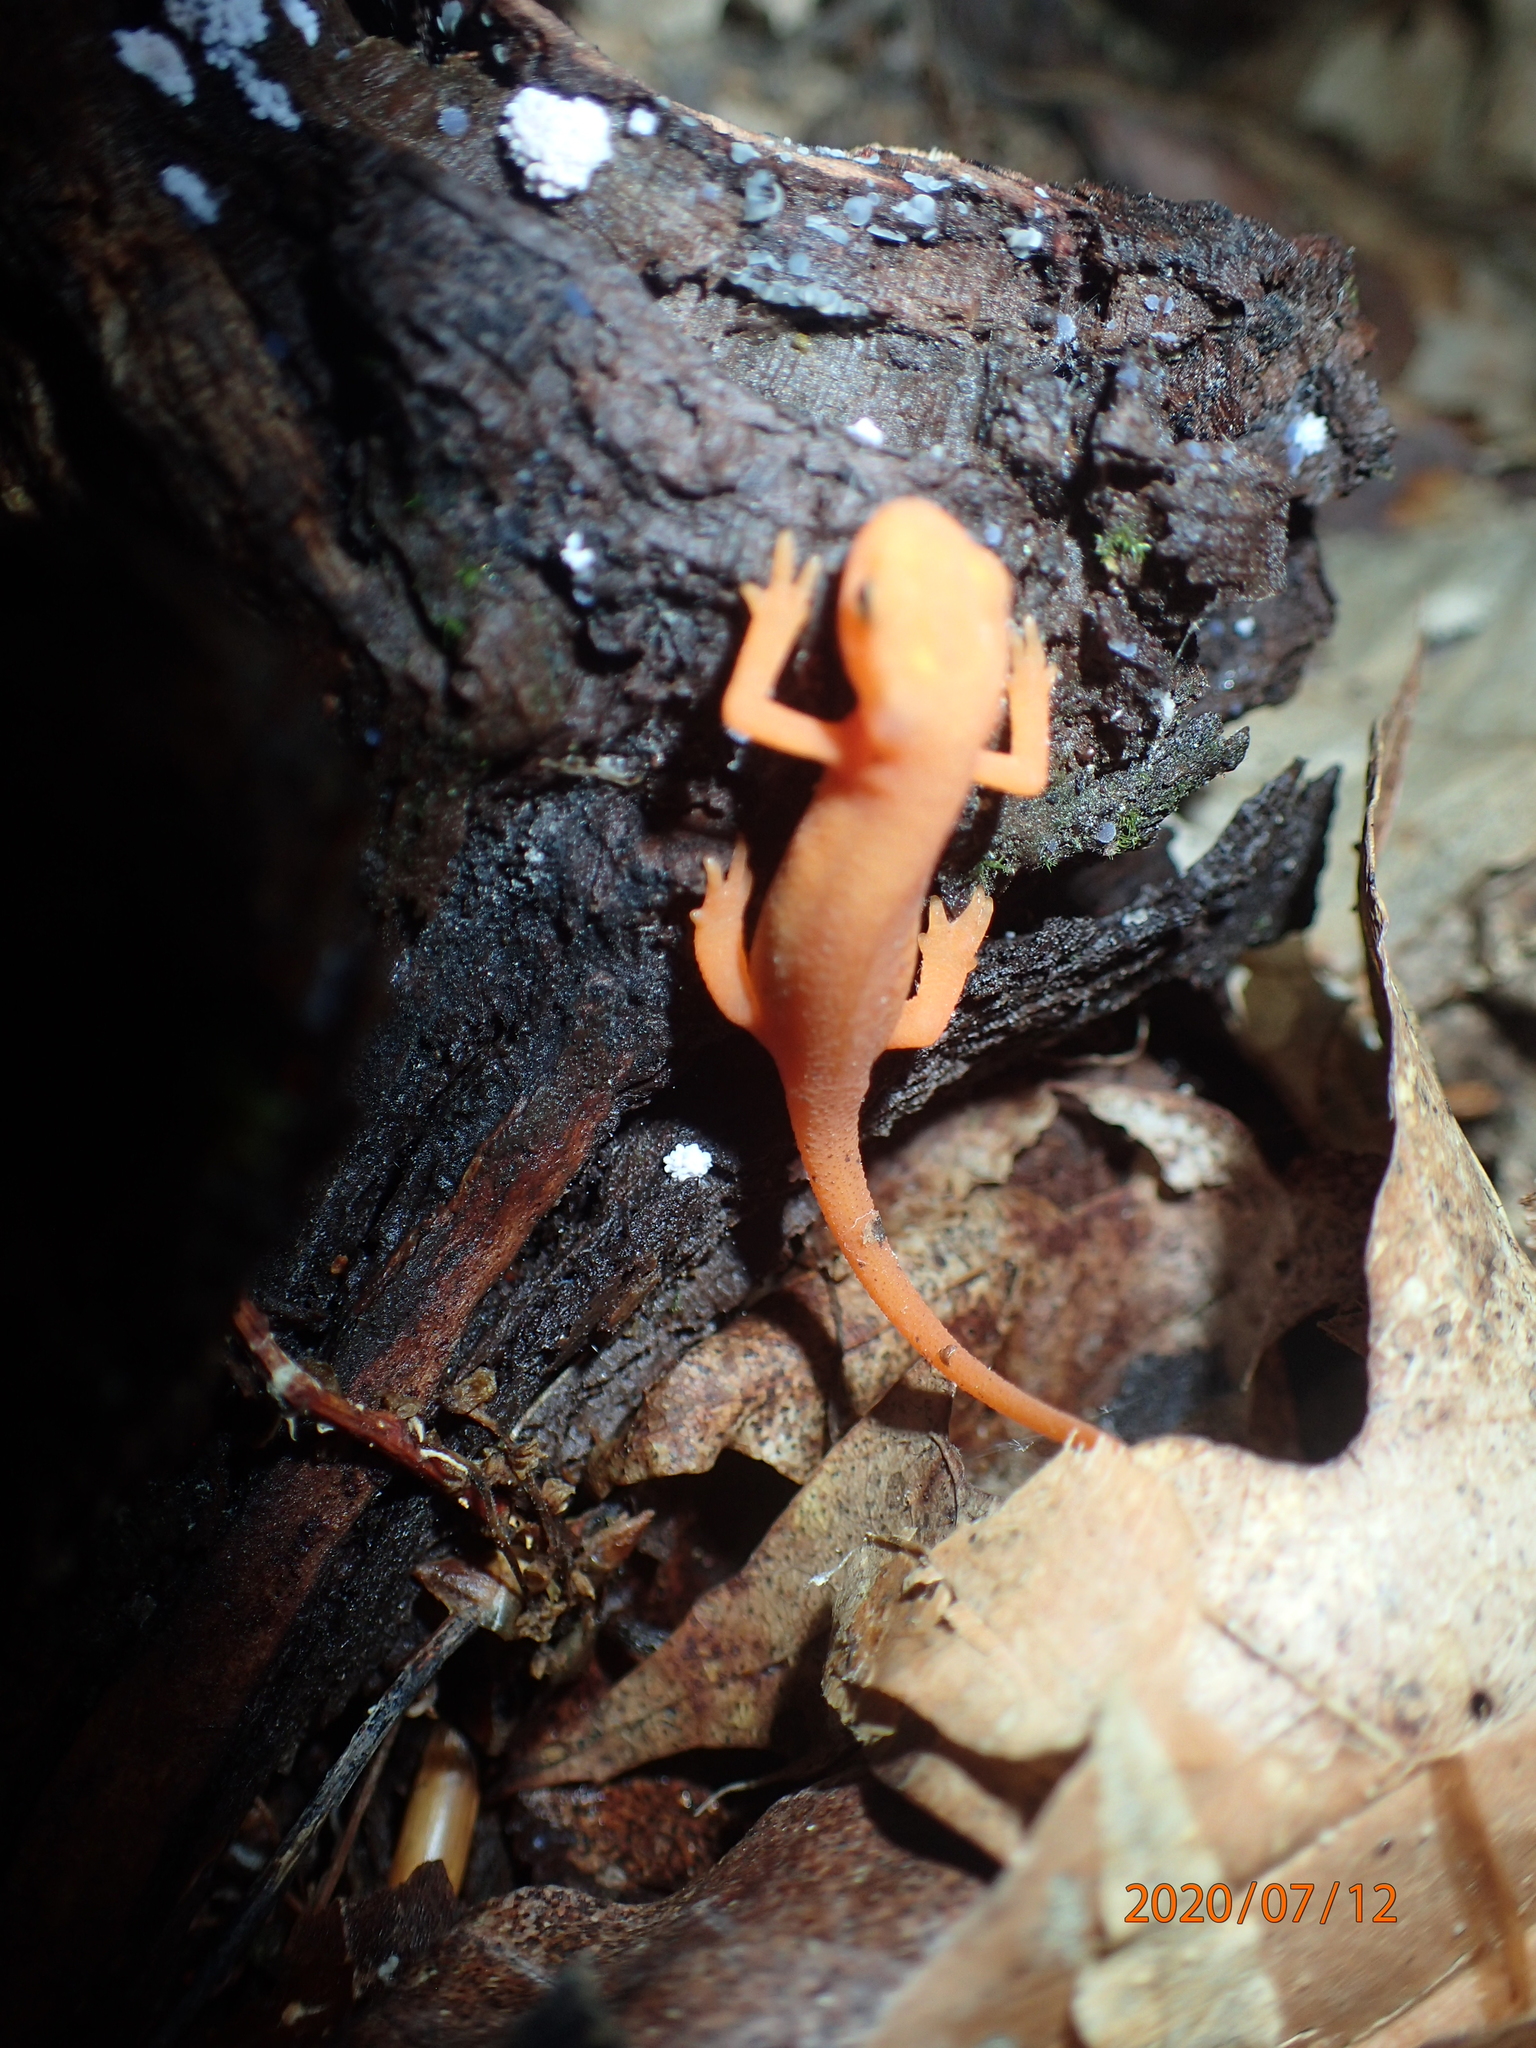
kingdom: Animalia
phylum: Chordata
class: Amphibia
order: Caudata
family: Salamandridae
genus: Notophthalmus
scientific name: Notophthalmus viridescens
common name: Eastern newt
